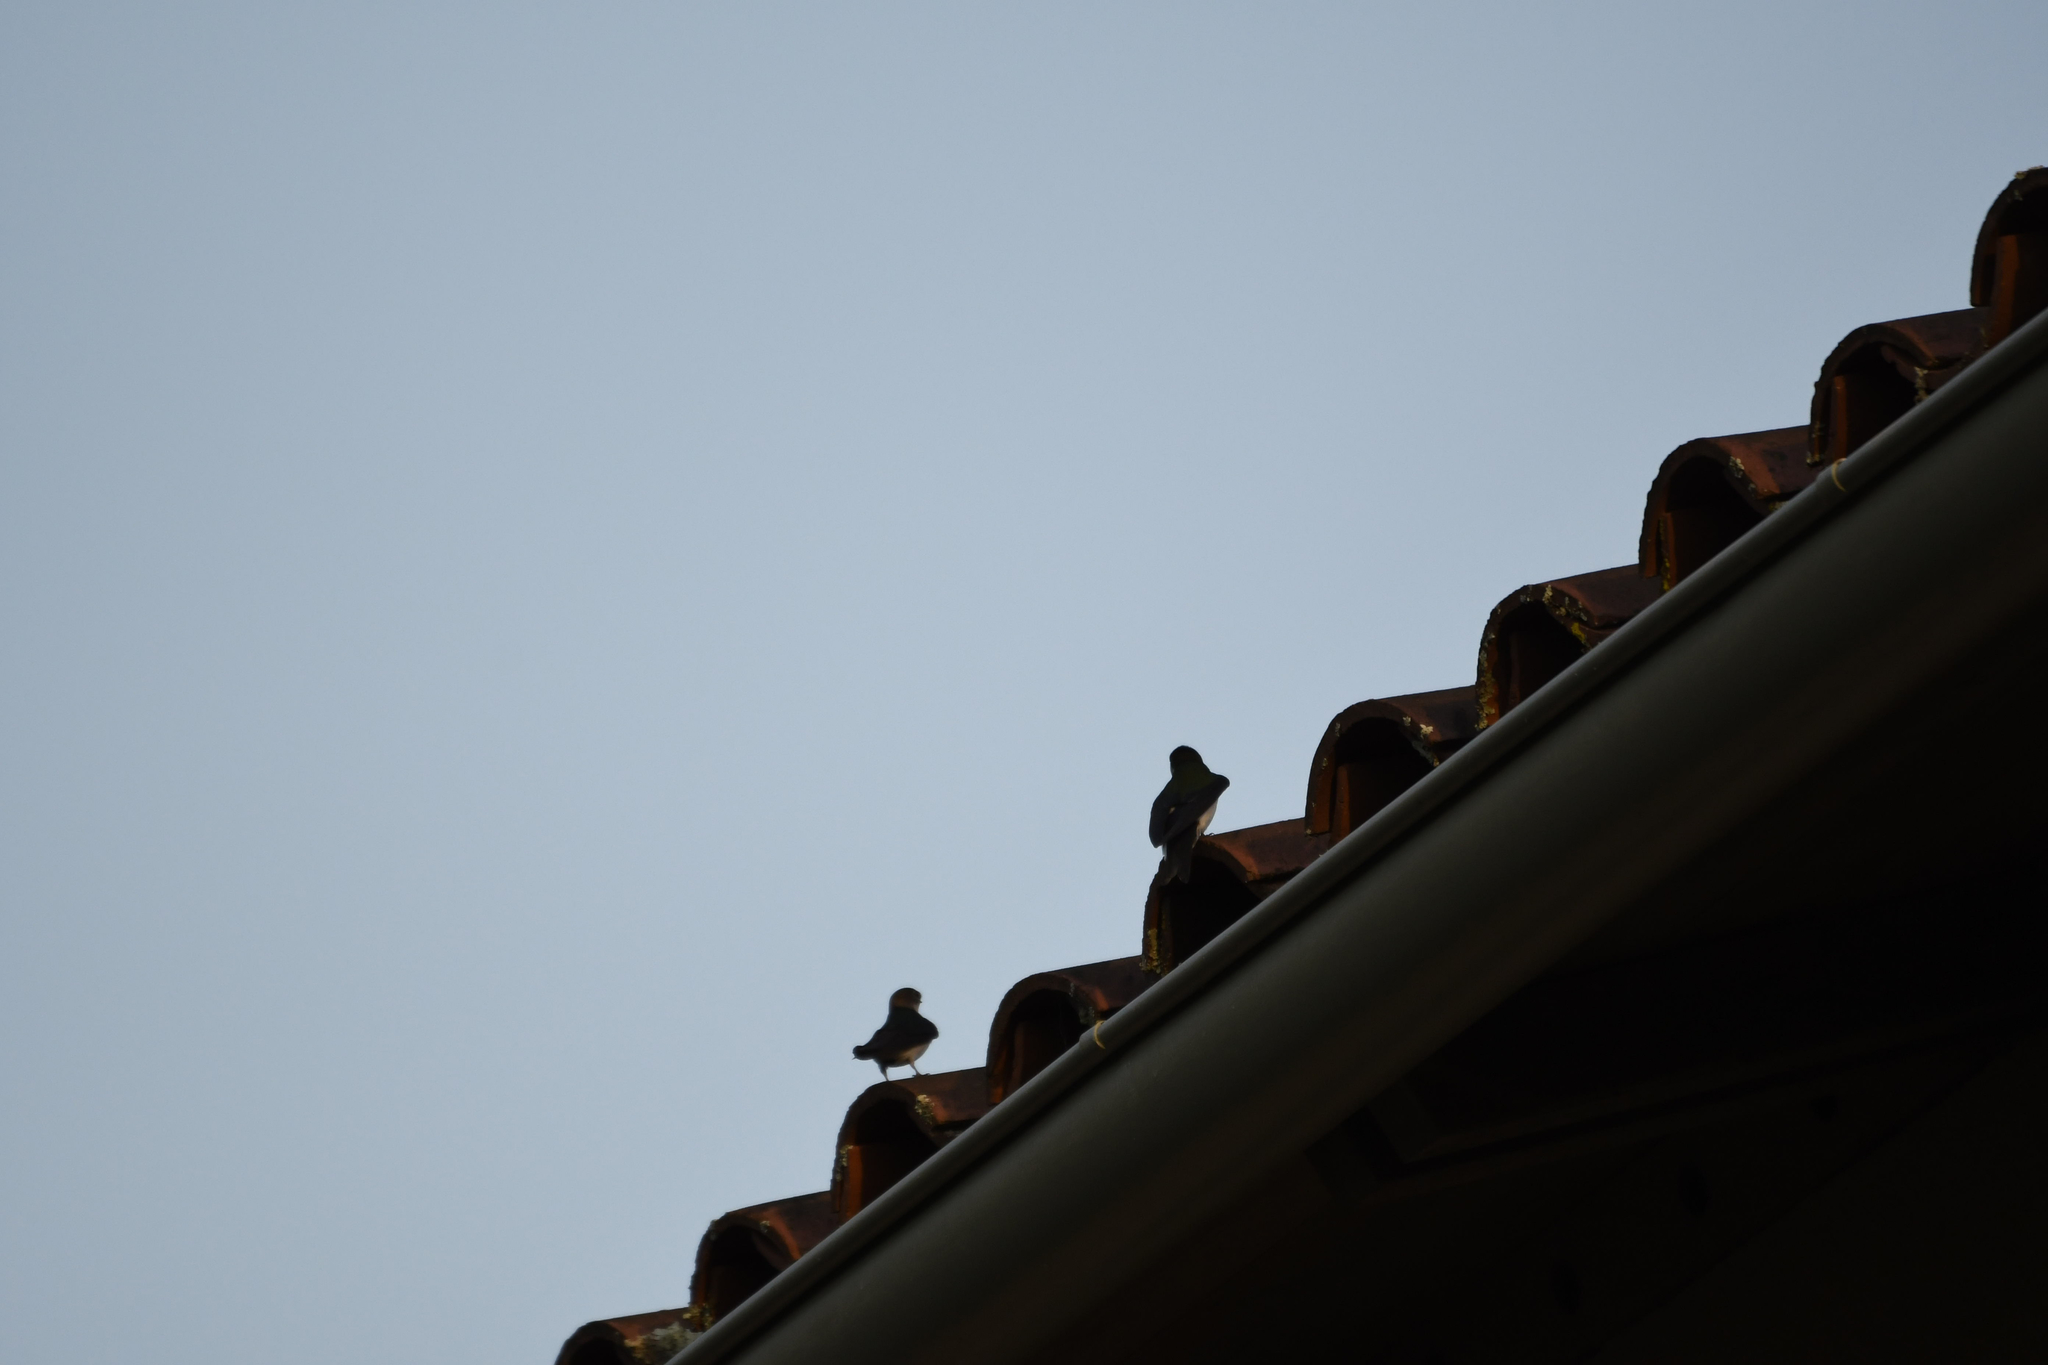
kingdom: Animalia
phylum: Chordata
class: Aves
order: Passeriformes
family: Hirundinidae
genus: Tachycineta
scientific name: Tachycineta thalassina
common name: Violet-green swallow
